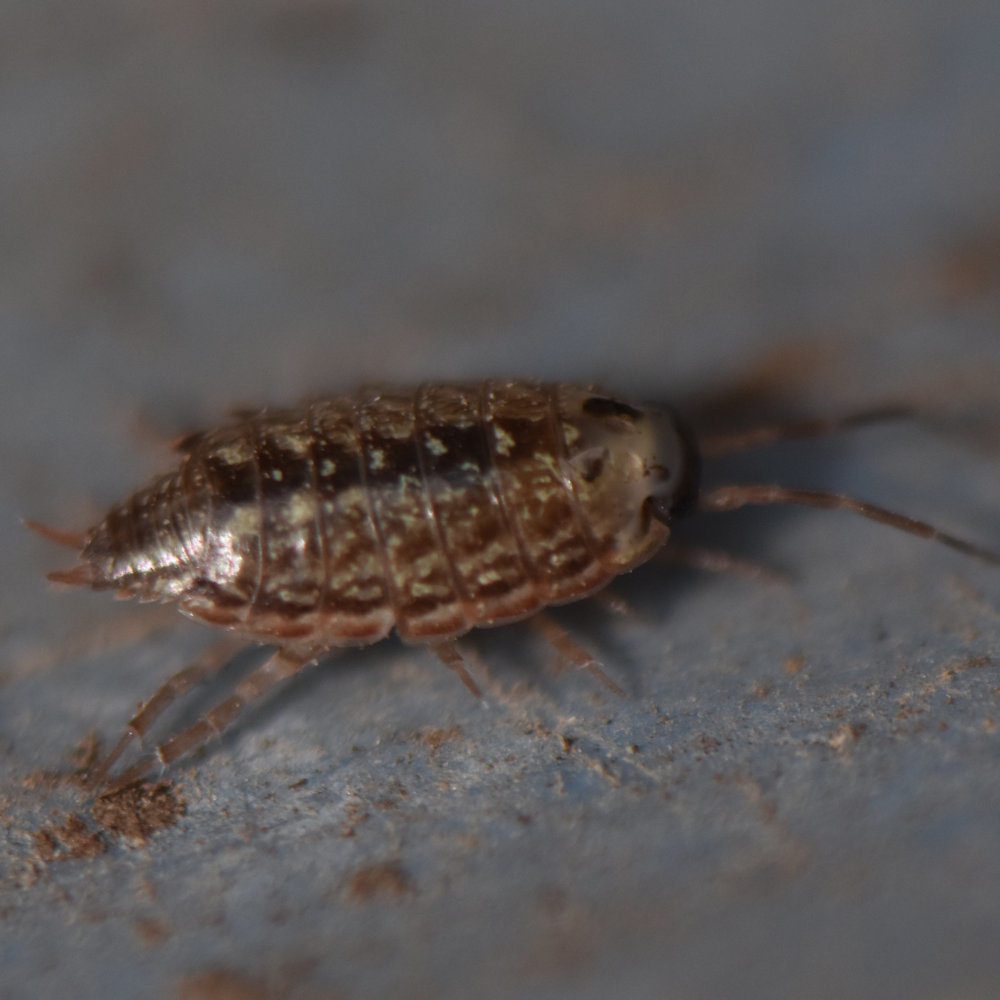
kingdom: Animalia
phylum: Arthropoda
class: Malacostraca
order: Isopoda
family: Philosciidae
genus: Philoscia
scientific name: Philoscia muscorum
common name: Common striped woodlouse
